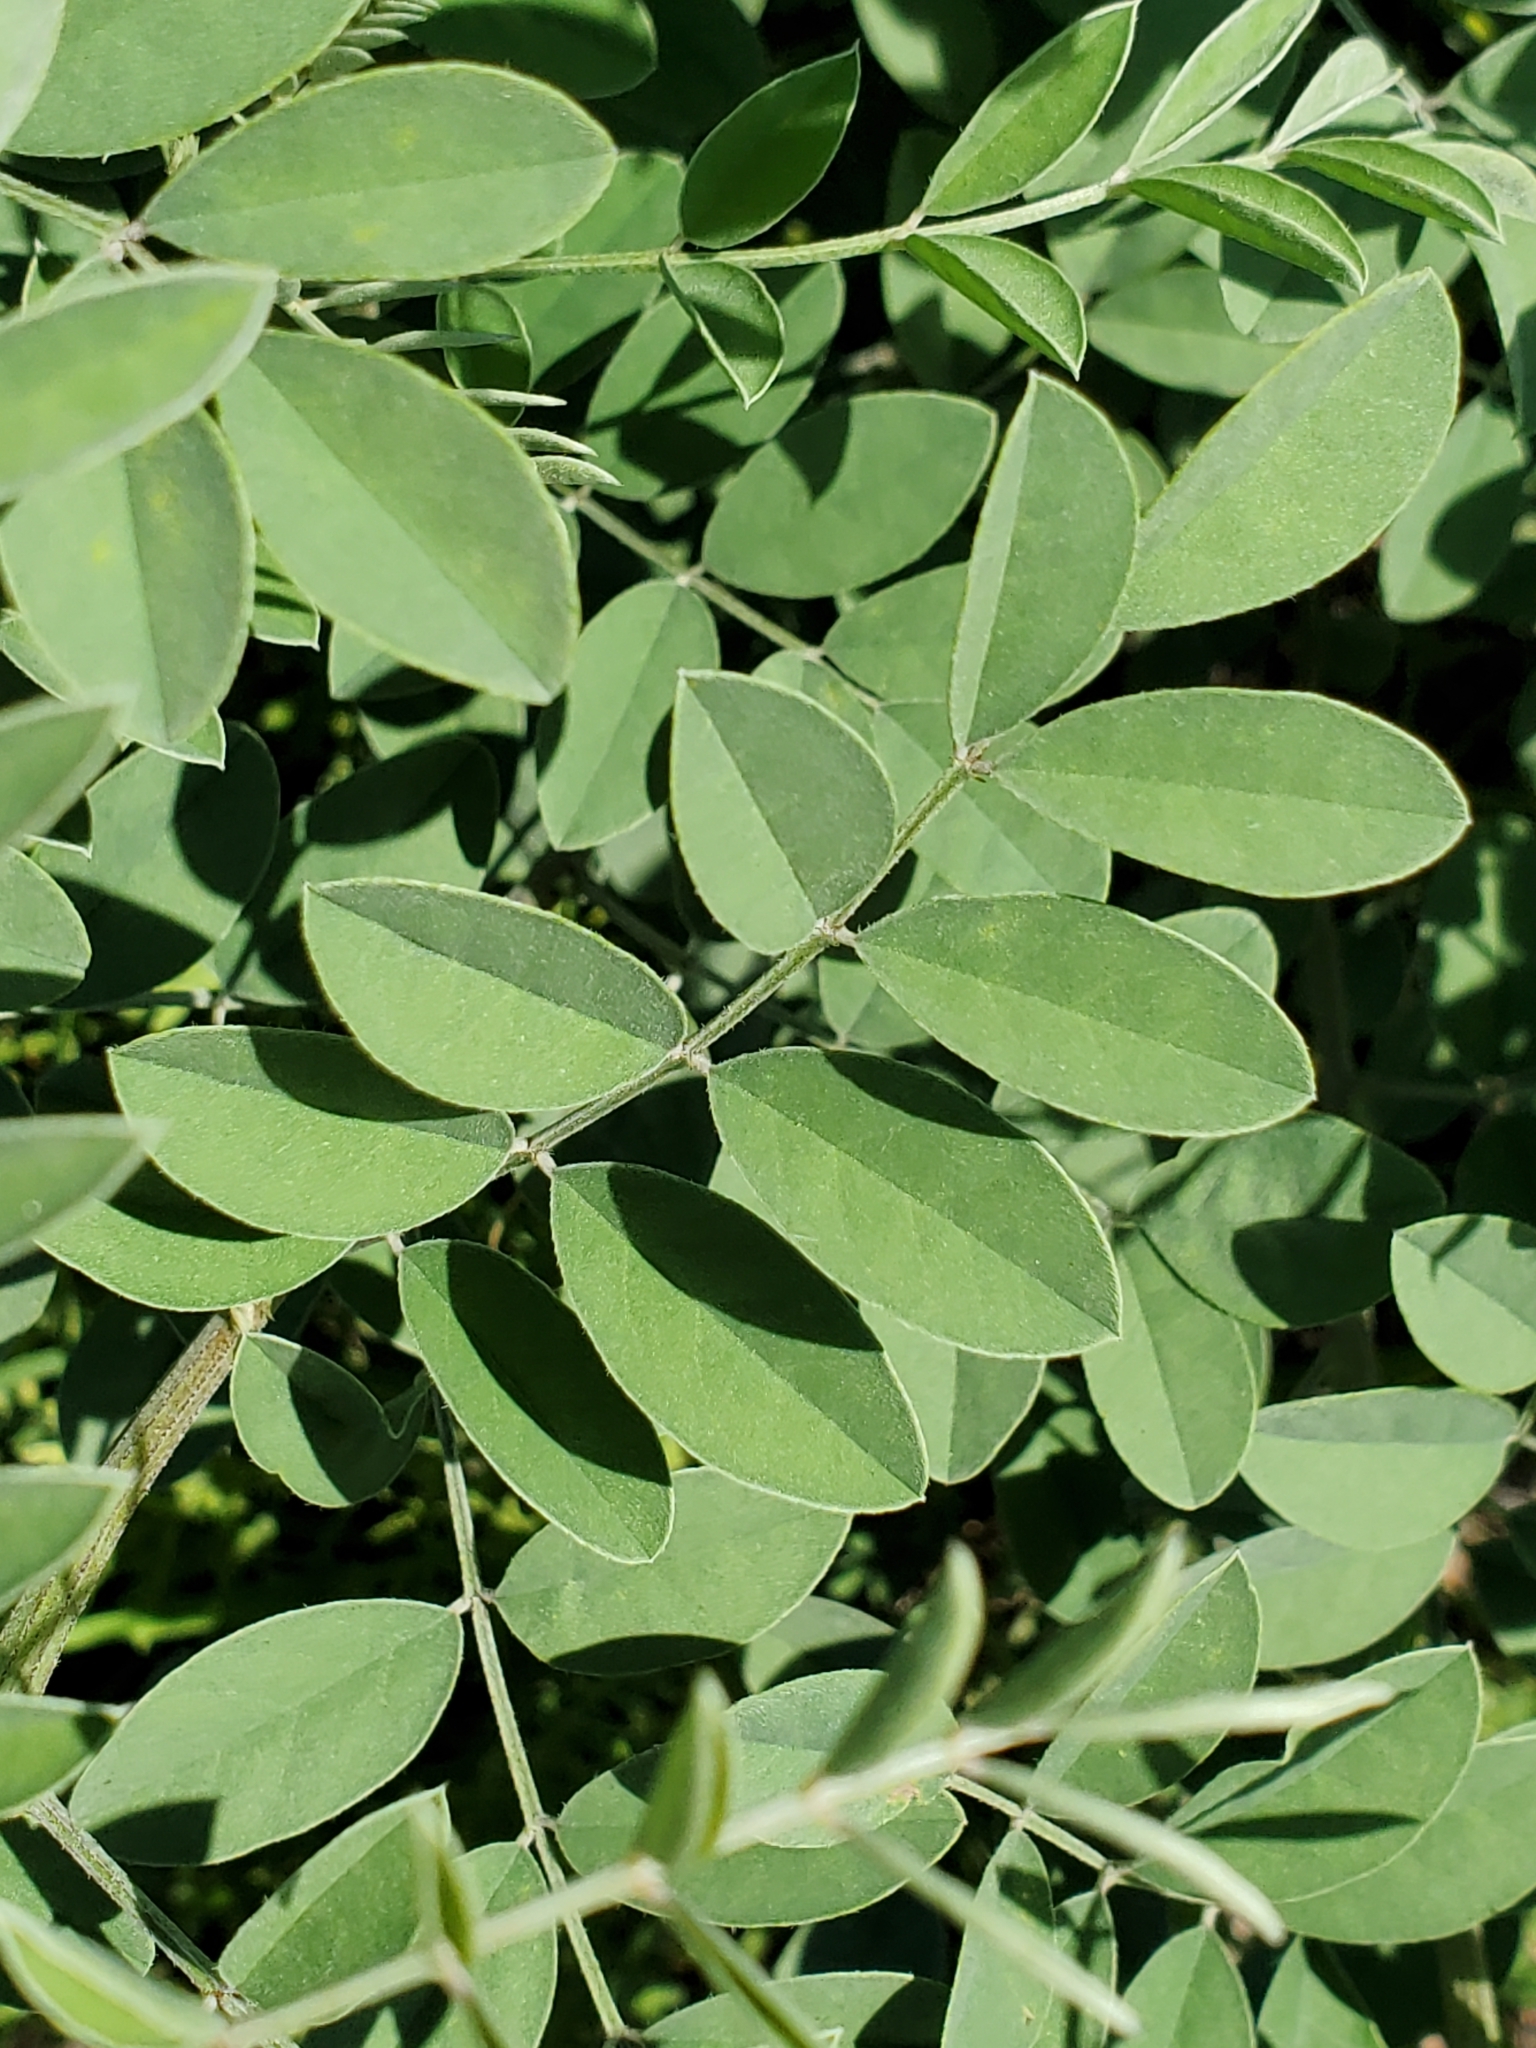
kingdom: Plantae
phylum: Tracheophyta
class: Magnoliopsida
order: Fabales
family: Fabaceae
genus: Indigofera
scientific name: Indigofera lindheimeriana
